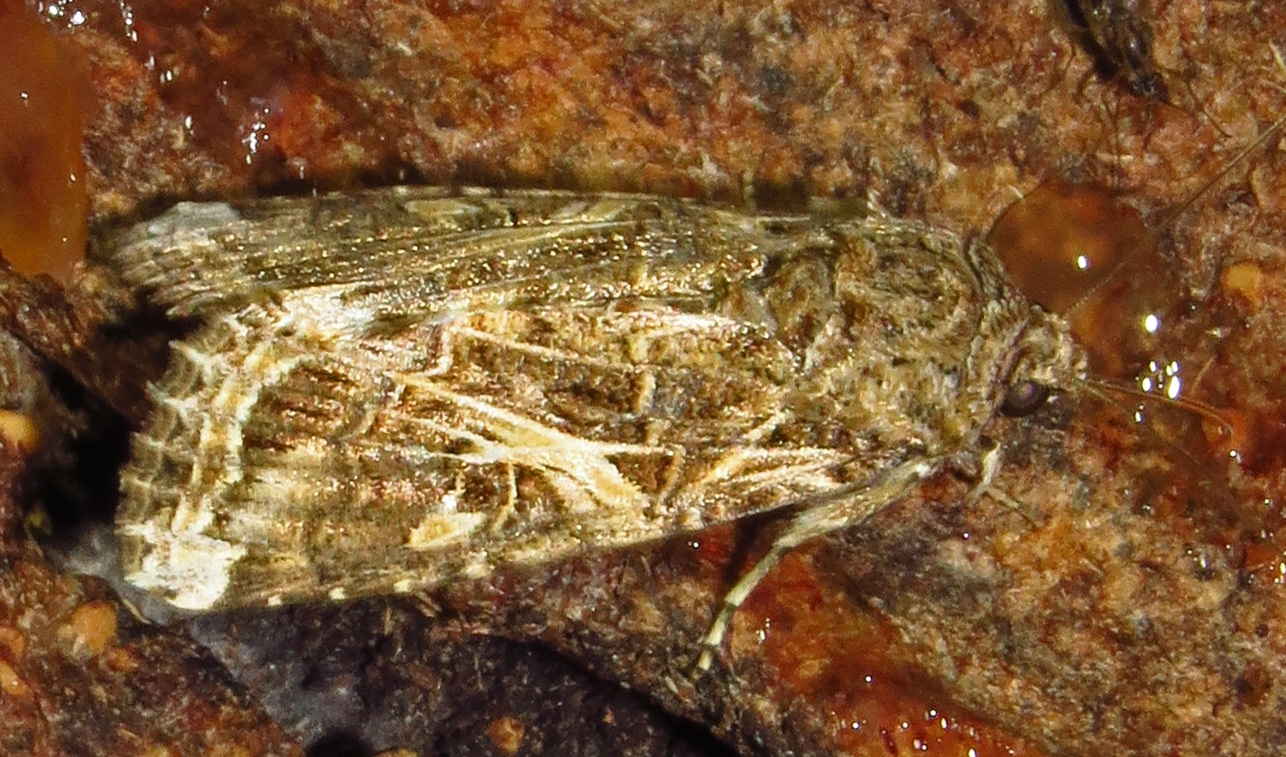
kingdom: Animalia
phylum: Arthropoda
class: Insecta
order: Lepidoptera
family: Noctuidae
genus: Spodoptera
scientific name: Spodoptera ornithogalli
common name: Yellow-striped armyworm
